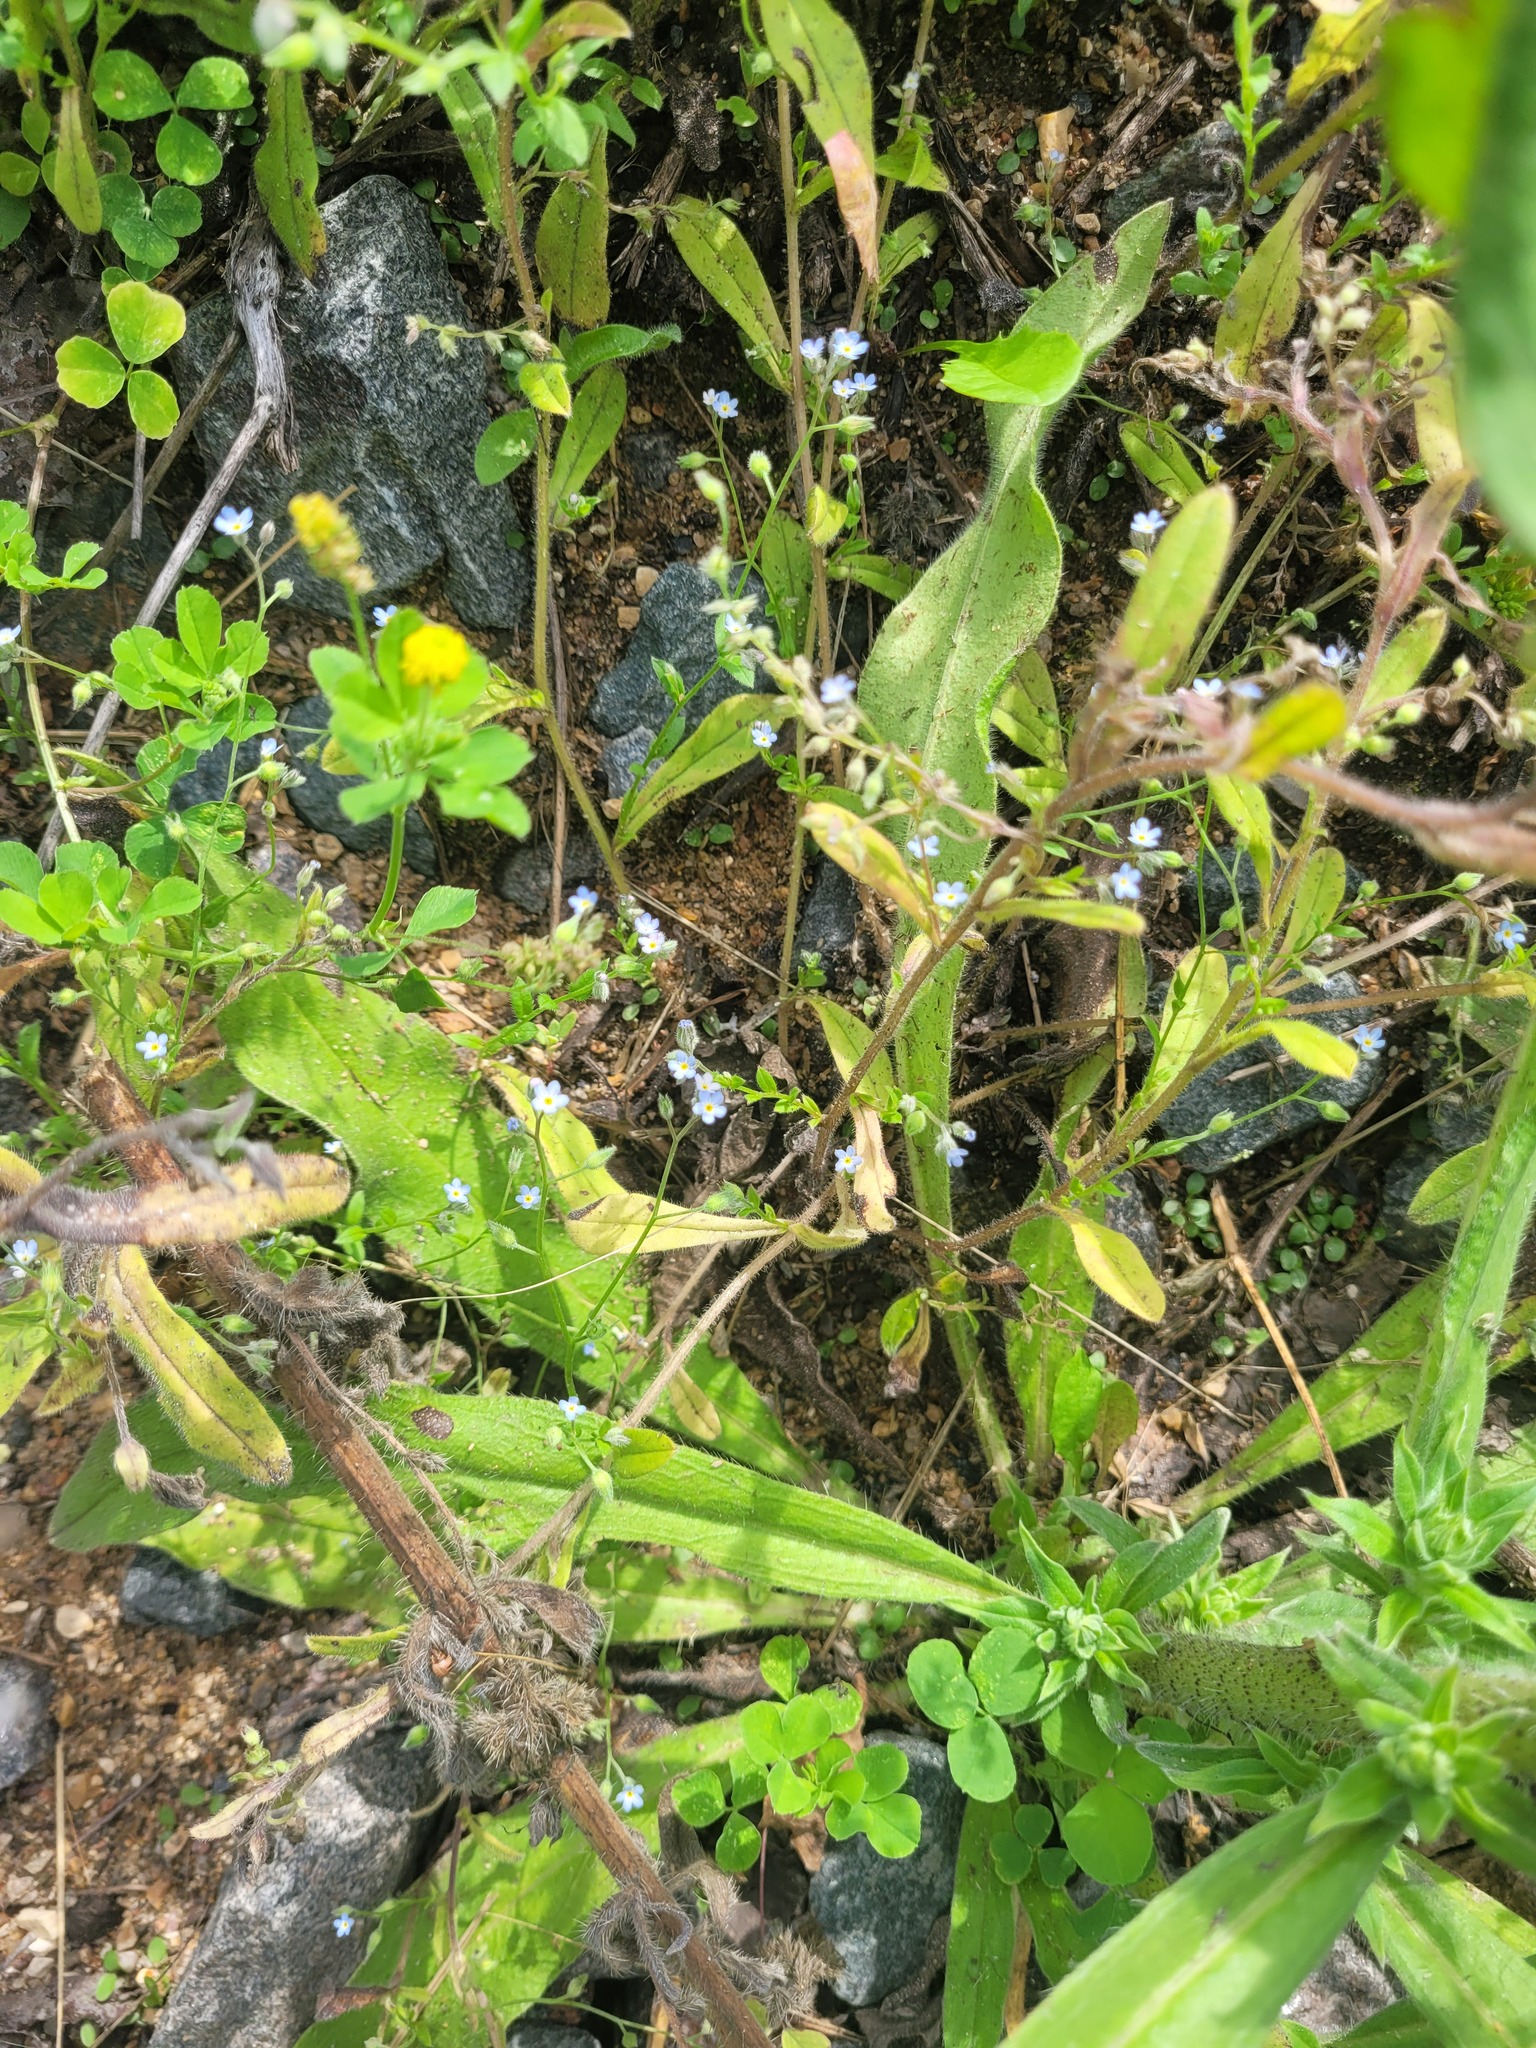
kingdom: Plantae
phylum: Tracheophyta
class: Magnoliopsida
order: Boraginales
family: Boraginaceae
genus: Myosotis
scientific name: Myosotis arvensis
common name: Field forget-me-not
